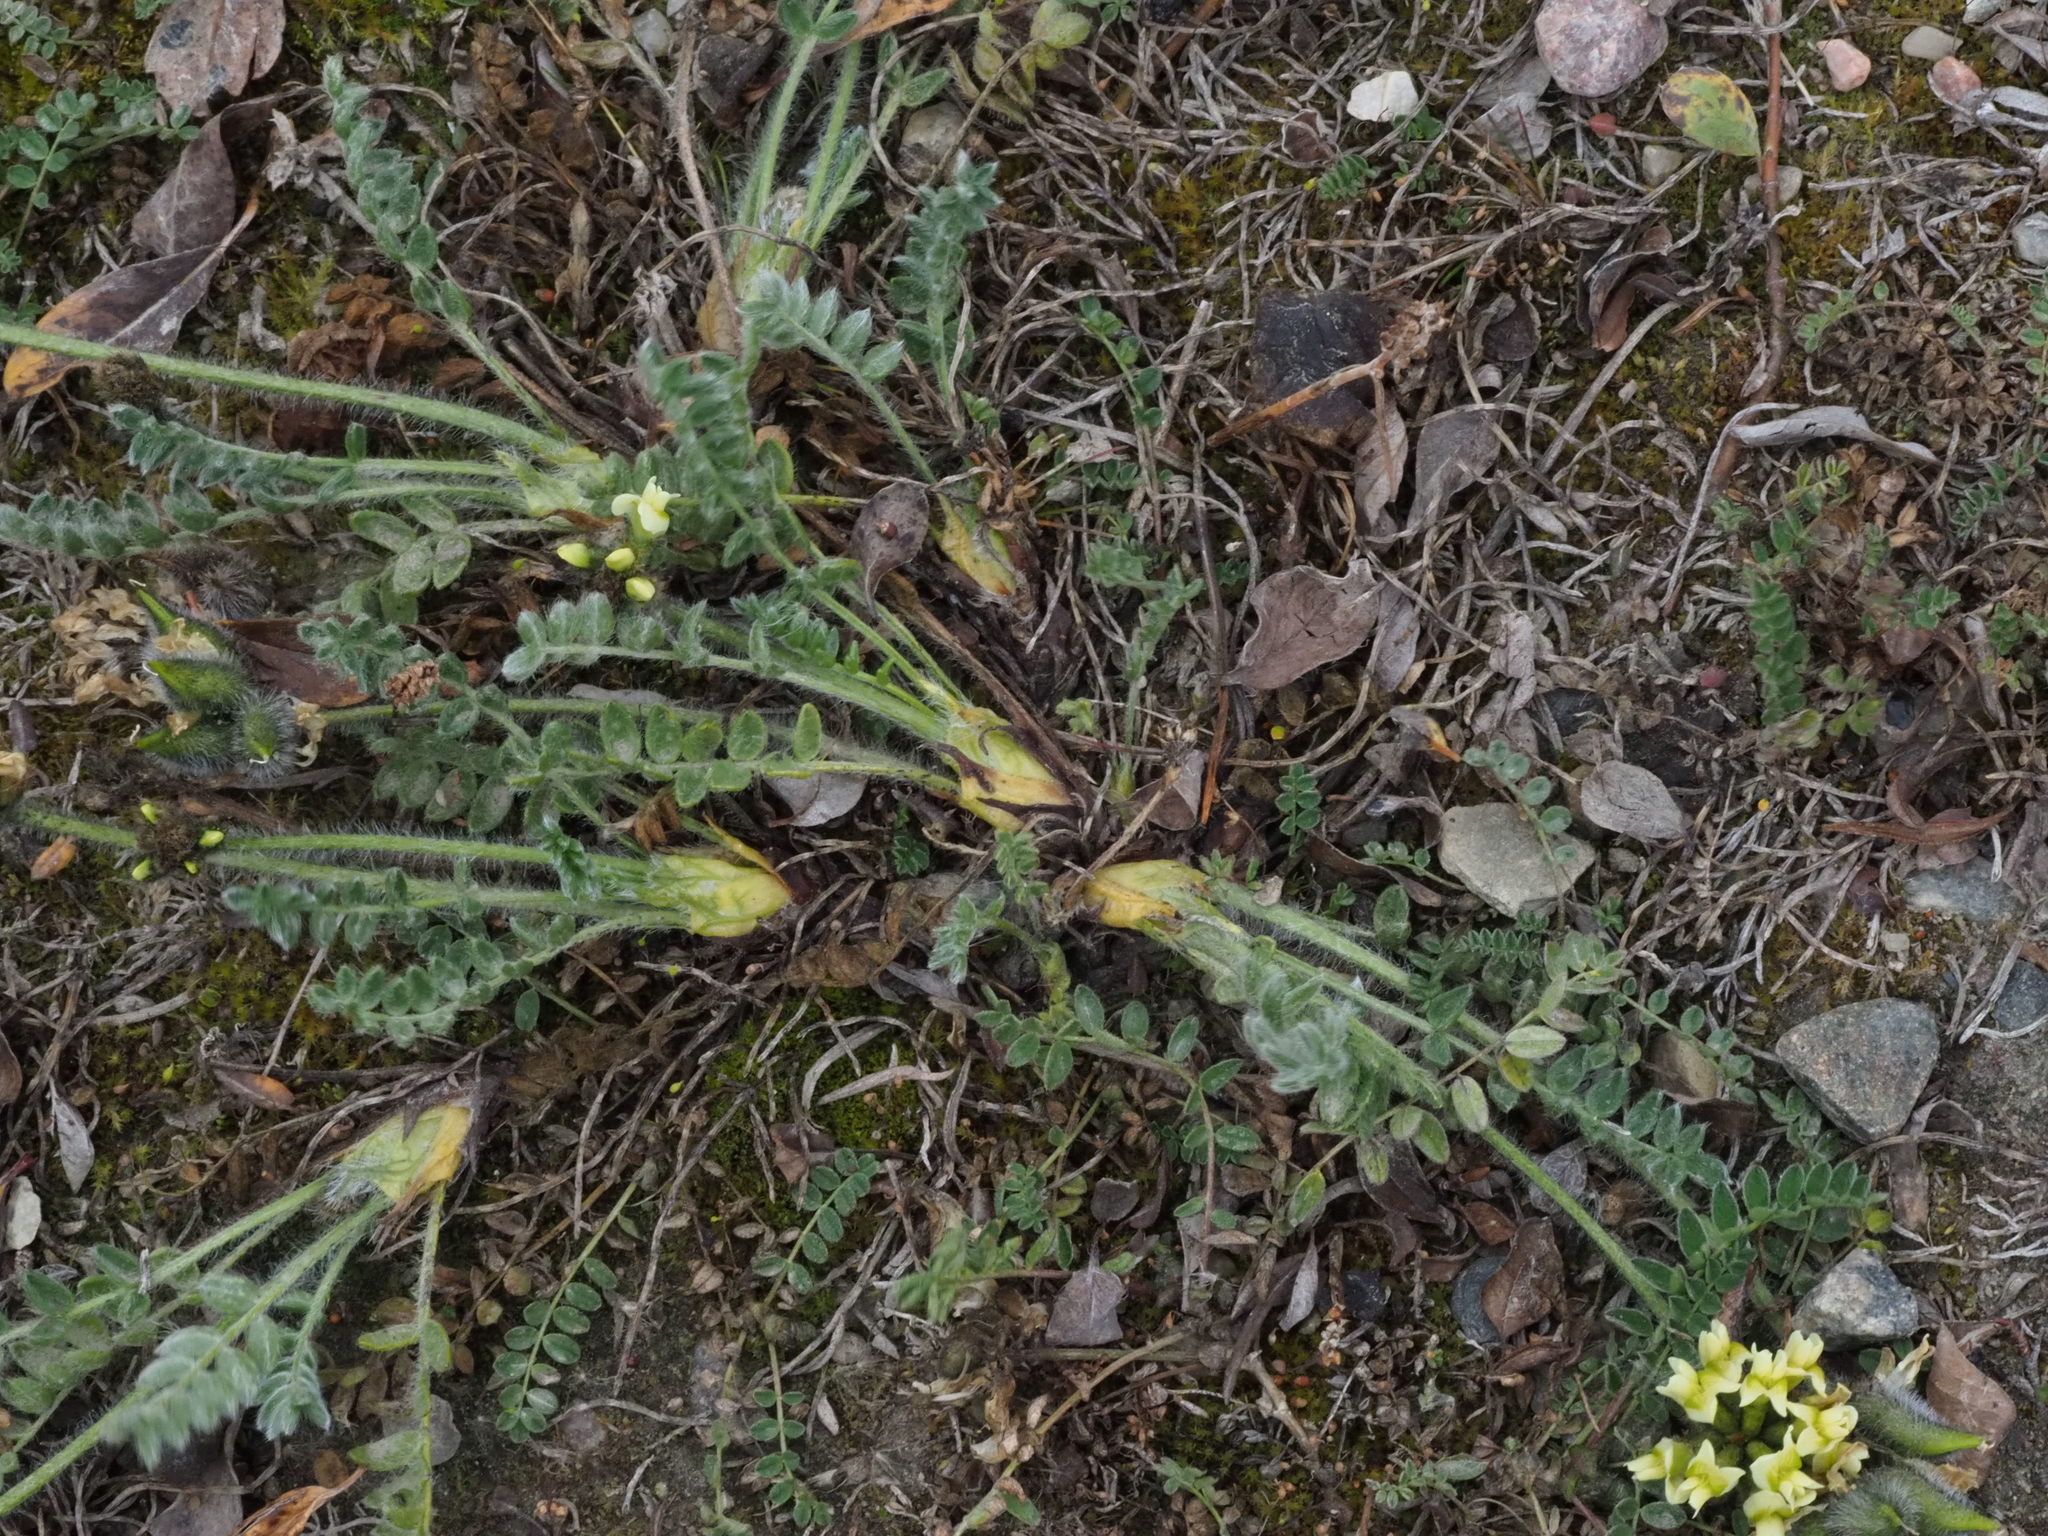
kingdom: Plantae
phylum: Tracheophyta
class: Magnoliopsida
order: Fabales
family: Fabaceae
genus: Oxytropis
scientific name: Oxytropis maydelliana
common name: Maydell's locoweed
